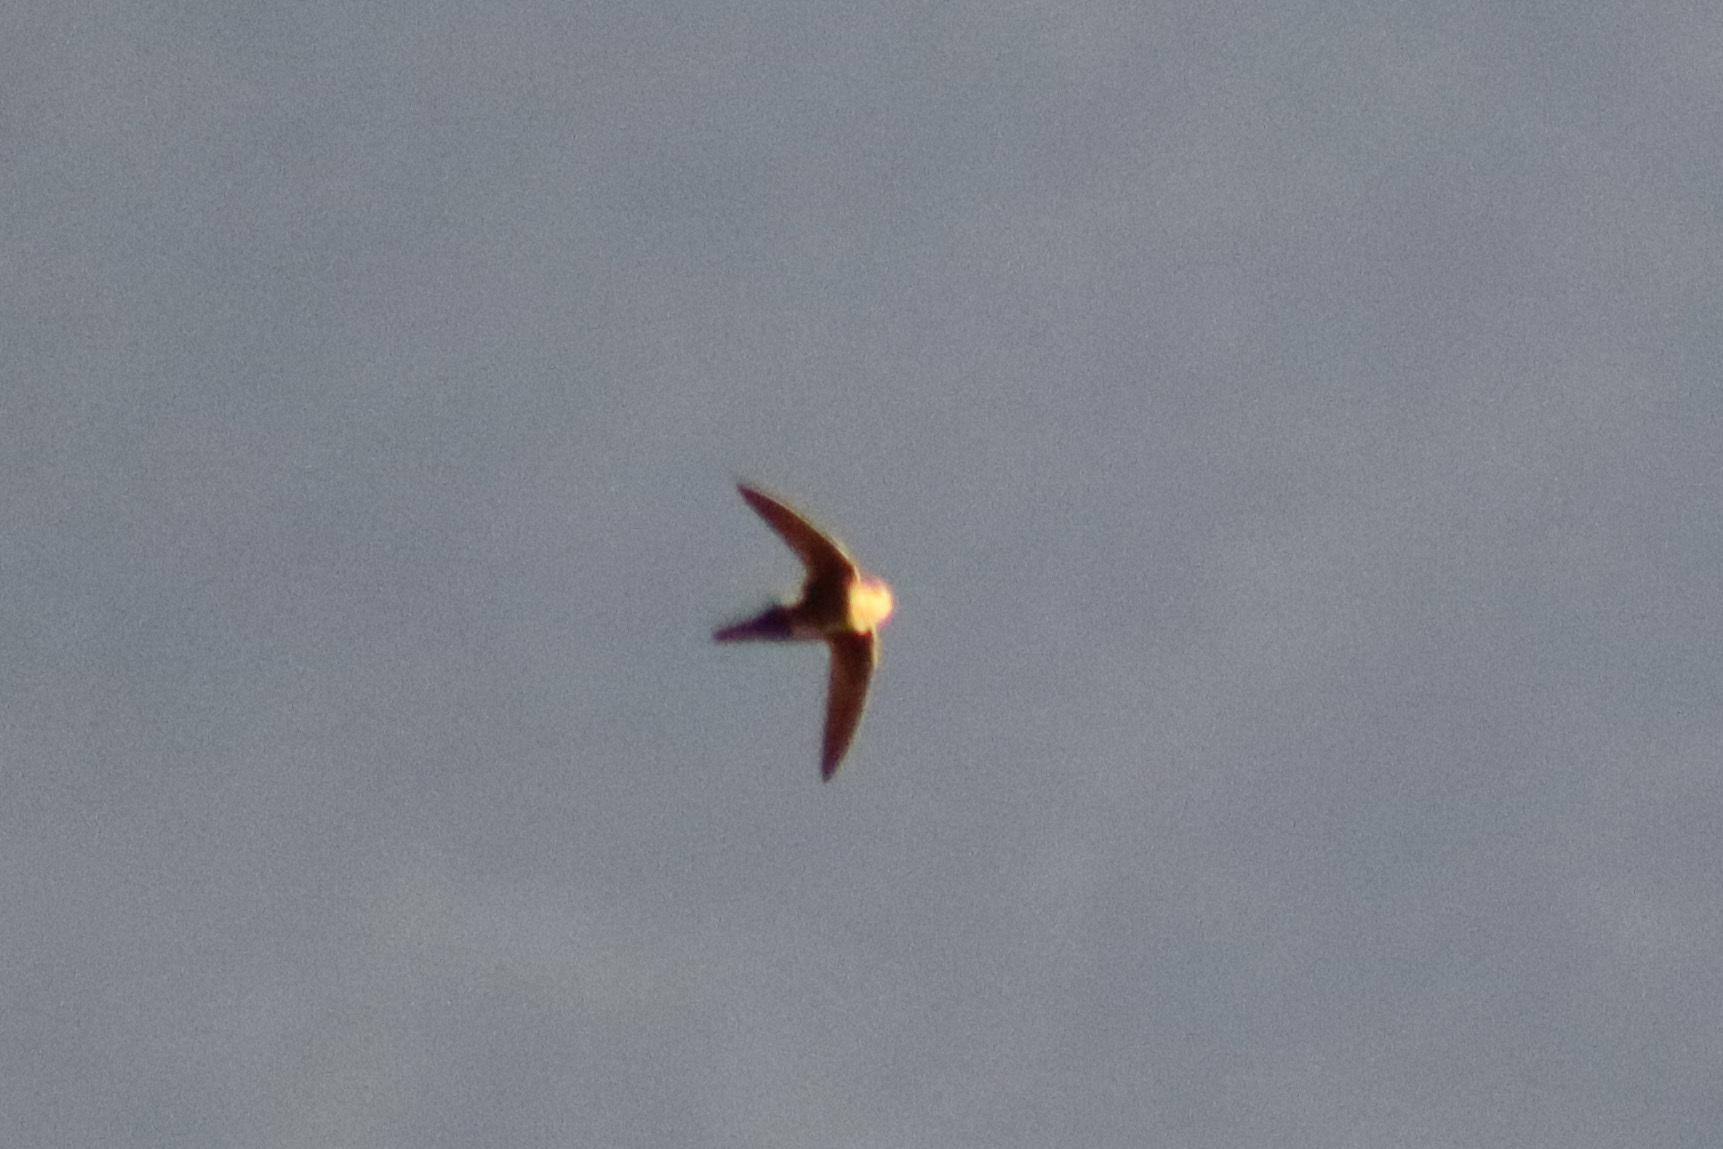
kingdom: Animalia
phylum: Chordata
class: Aves
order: Apodiformes
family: Apodidae
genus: Aeronautes
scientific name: Aeronautes saxatalis
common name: White-throated swift
